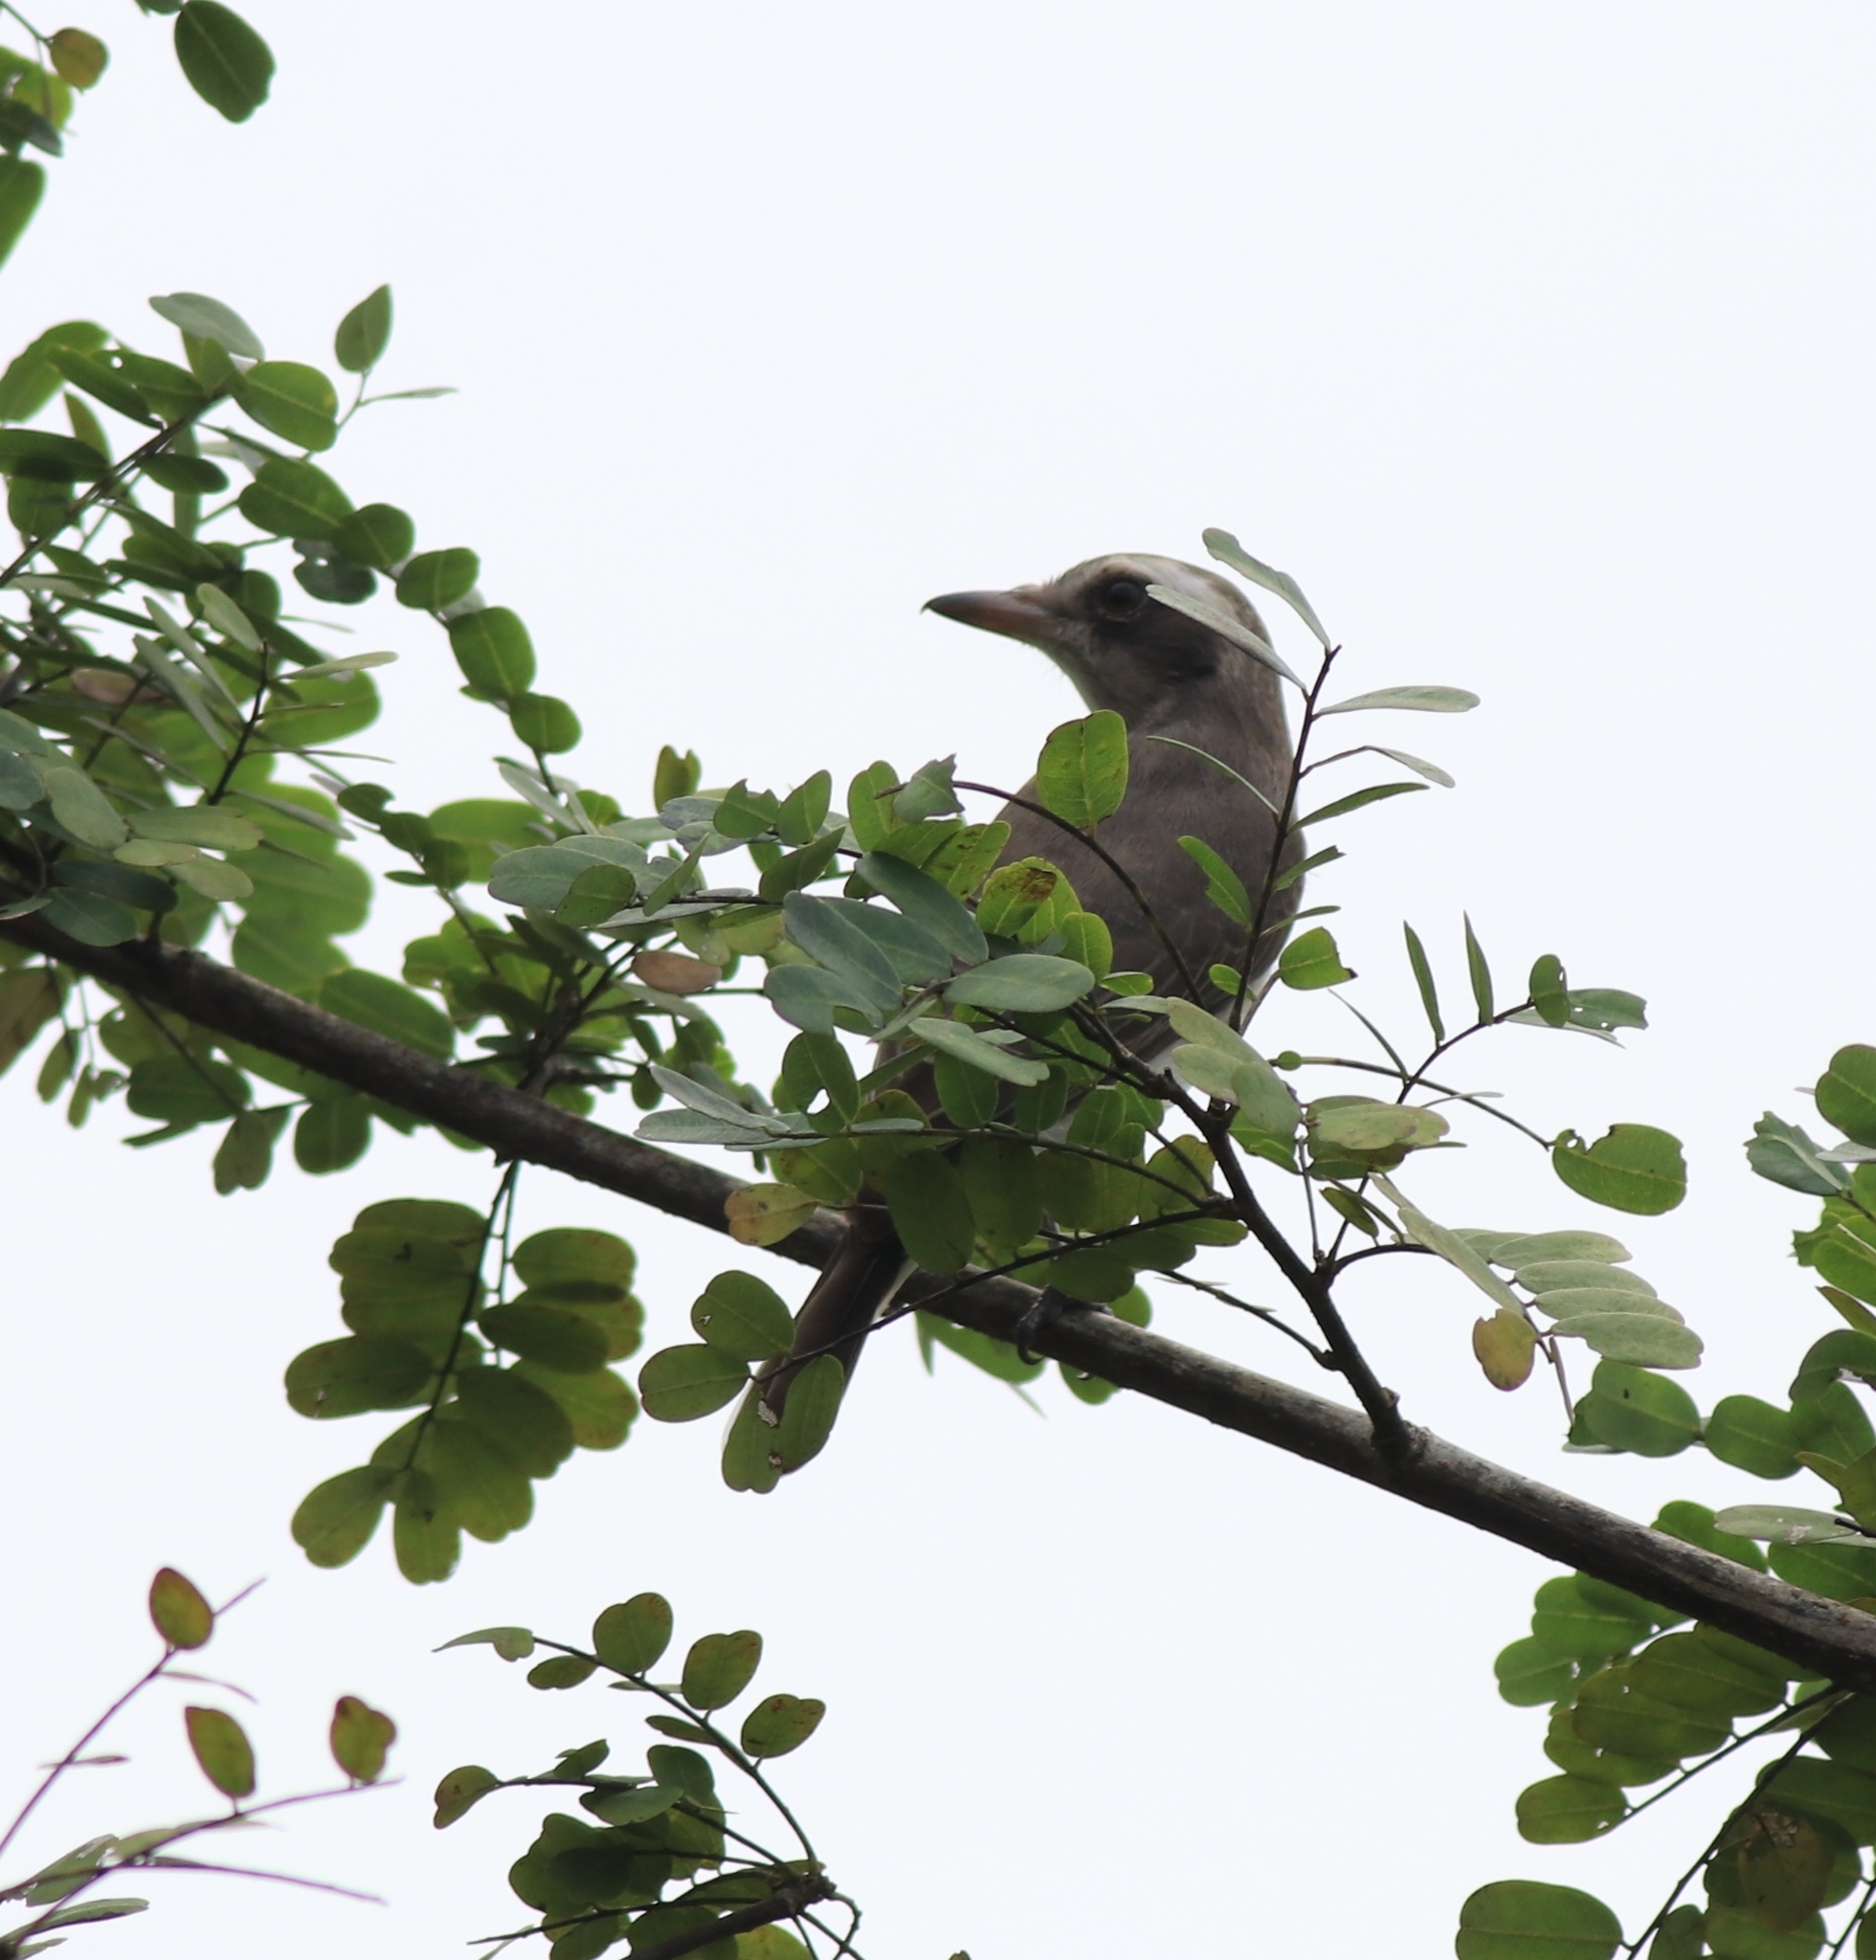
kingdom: Animalia
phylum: Chordata
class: Aves
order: Passeriformes
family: Tephrodornithidae
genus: Tephrodornis
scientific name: Tephrodornis pondicerianus
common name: Common woodshrike
